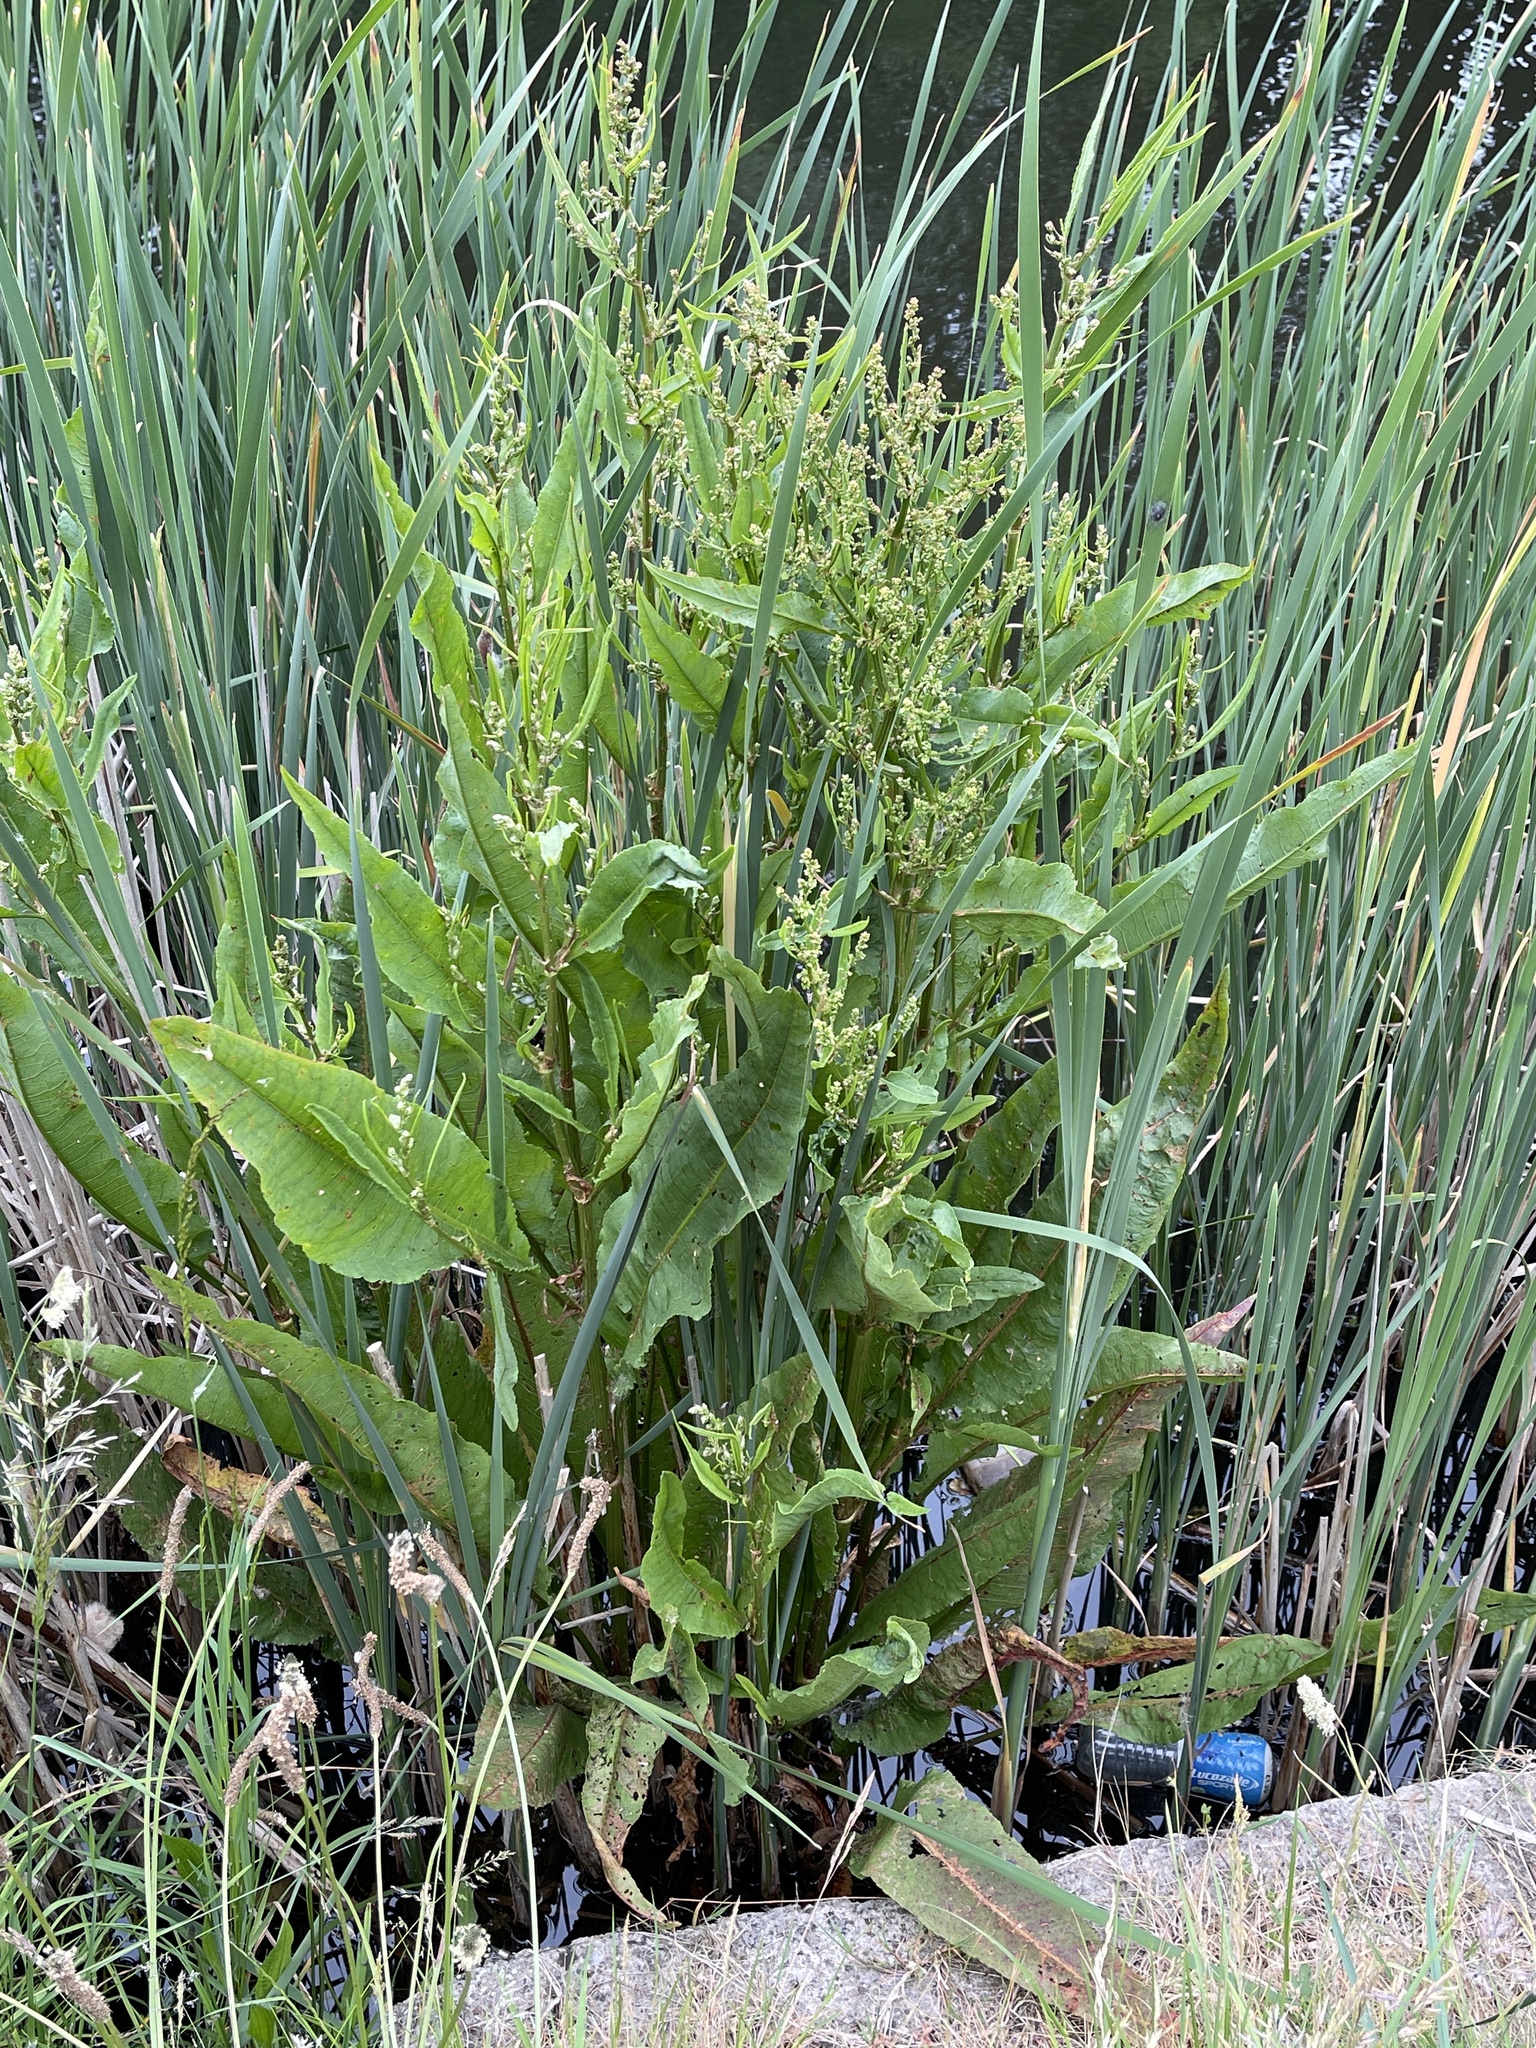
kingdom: Plantae
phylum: Tracheophyta
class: Magnoliopsida
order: Caryophyllales
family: Polygonaceae
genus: Rumex
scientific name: Rumex hydrolapathum
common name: Water dock
